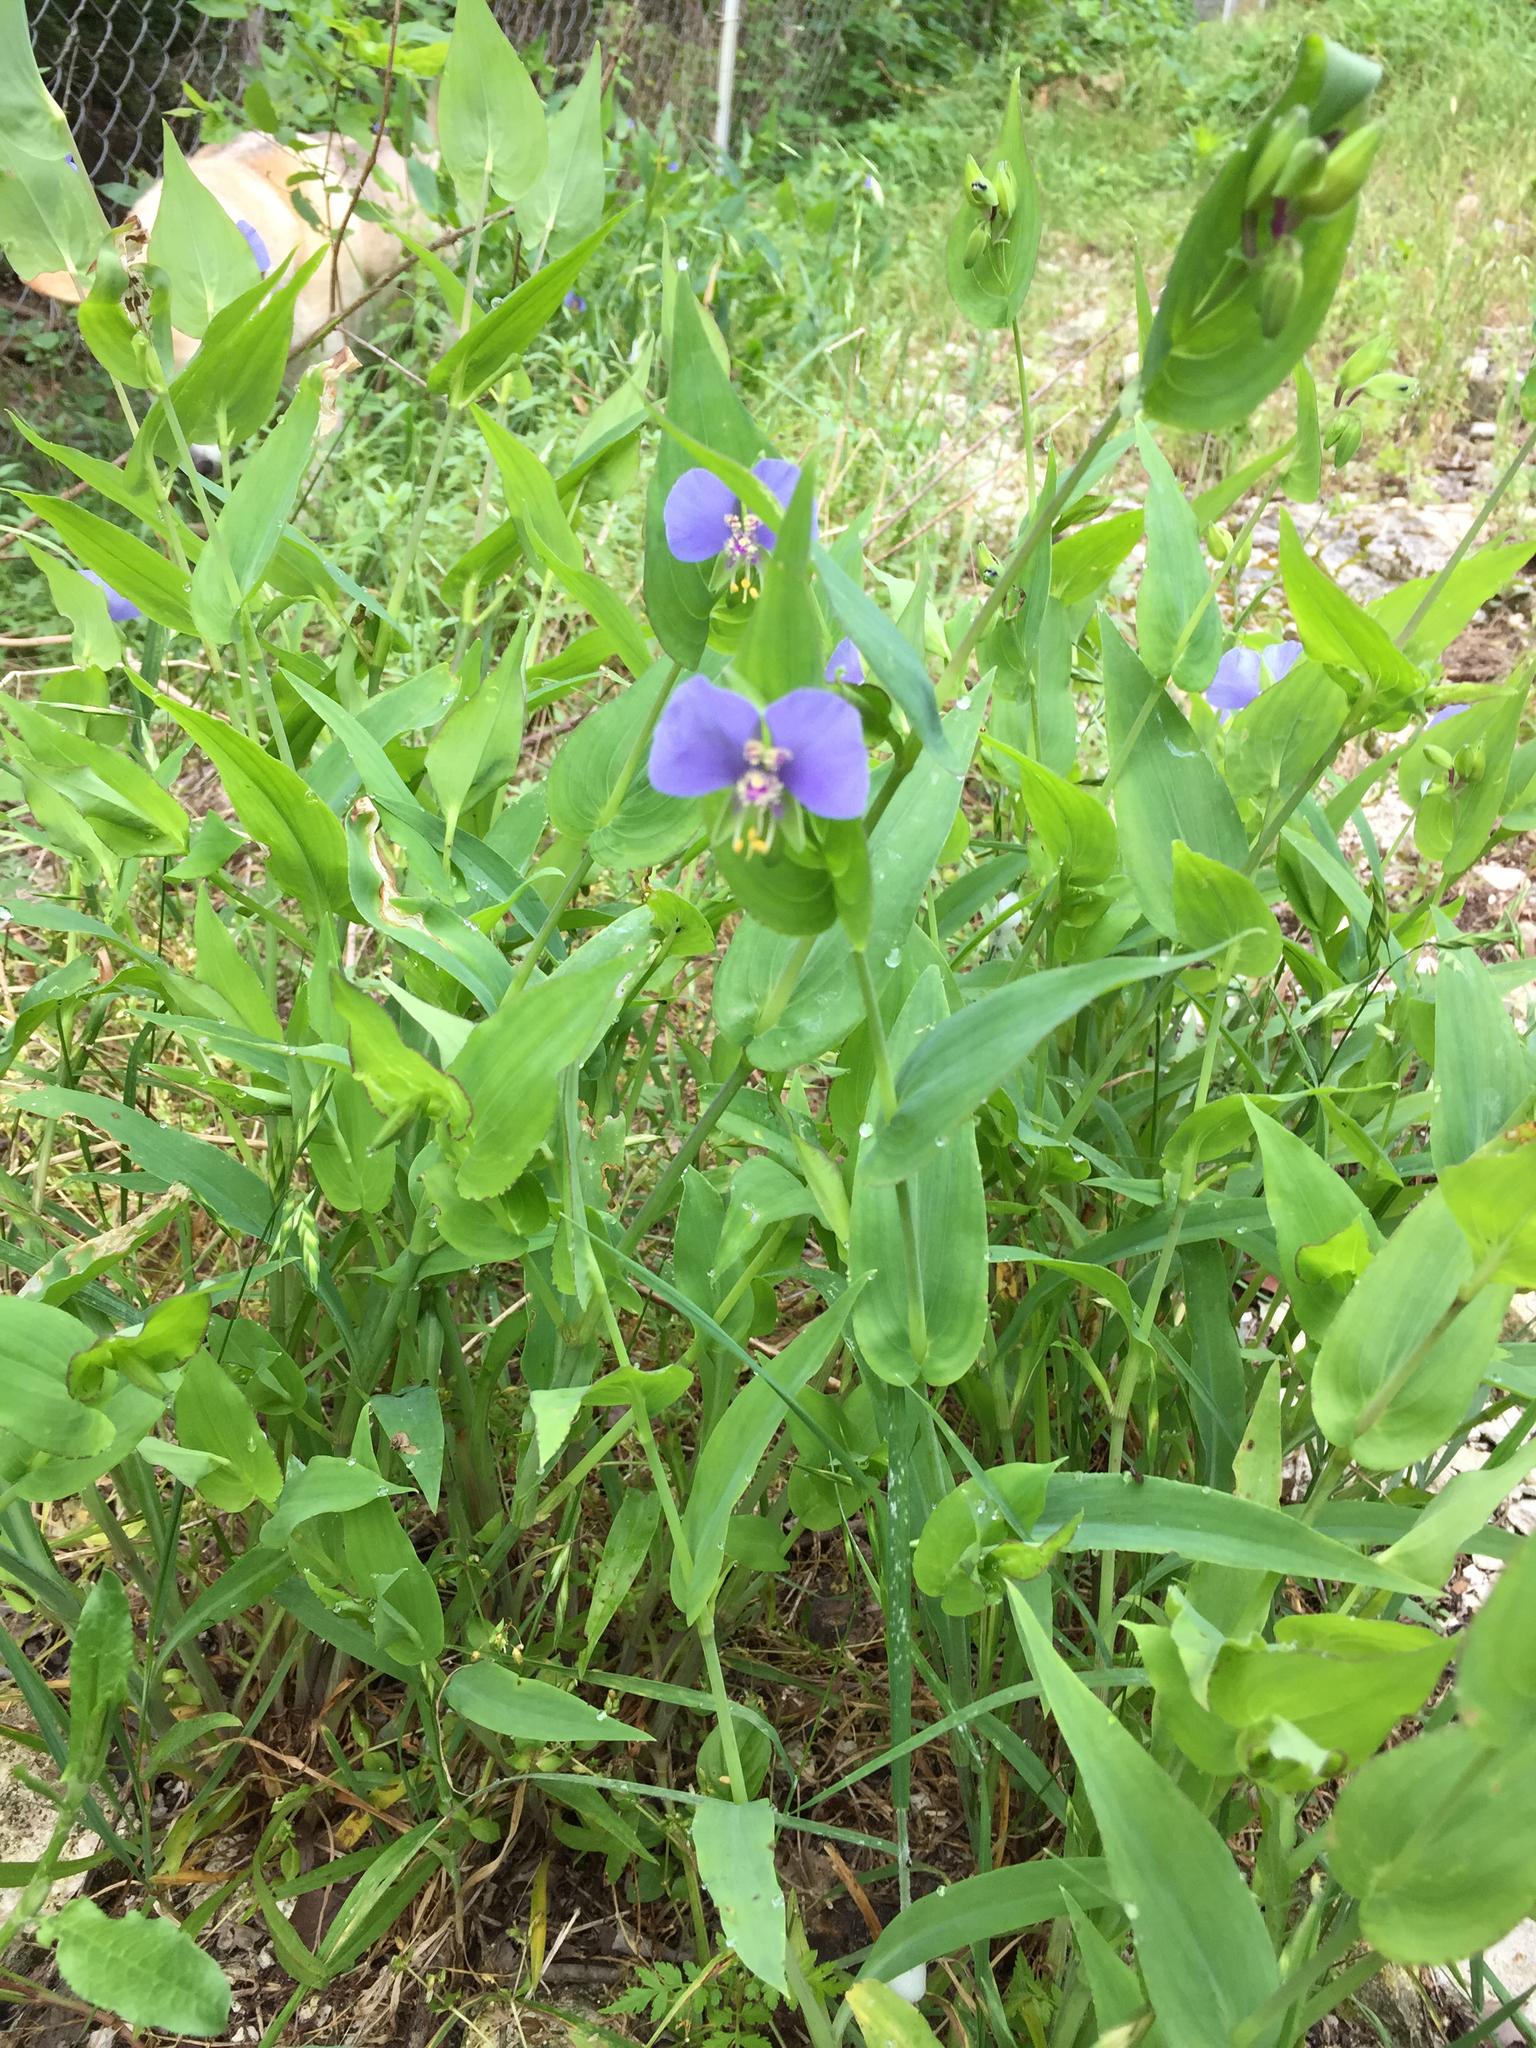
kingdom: Plantae
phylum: Tracheophyta
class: Liliopsida
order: Commelinales
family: Commelinaceae
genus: Tinantia
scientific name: Tinantia anomala
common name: False dayflower
